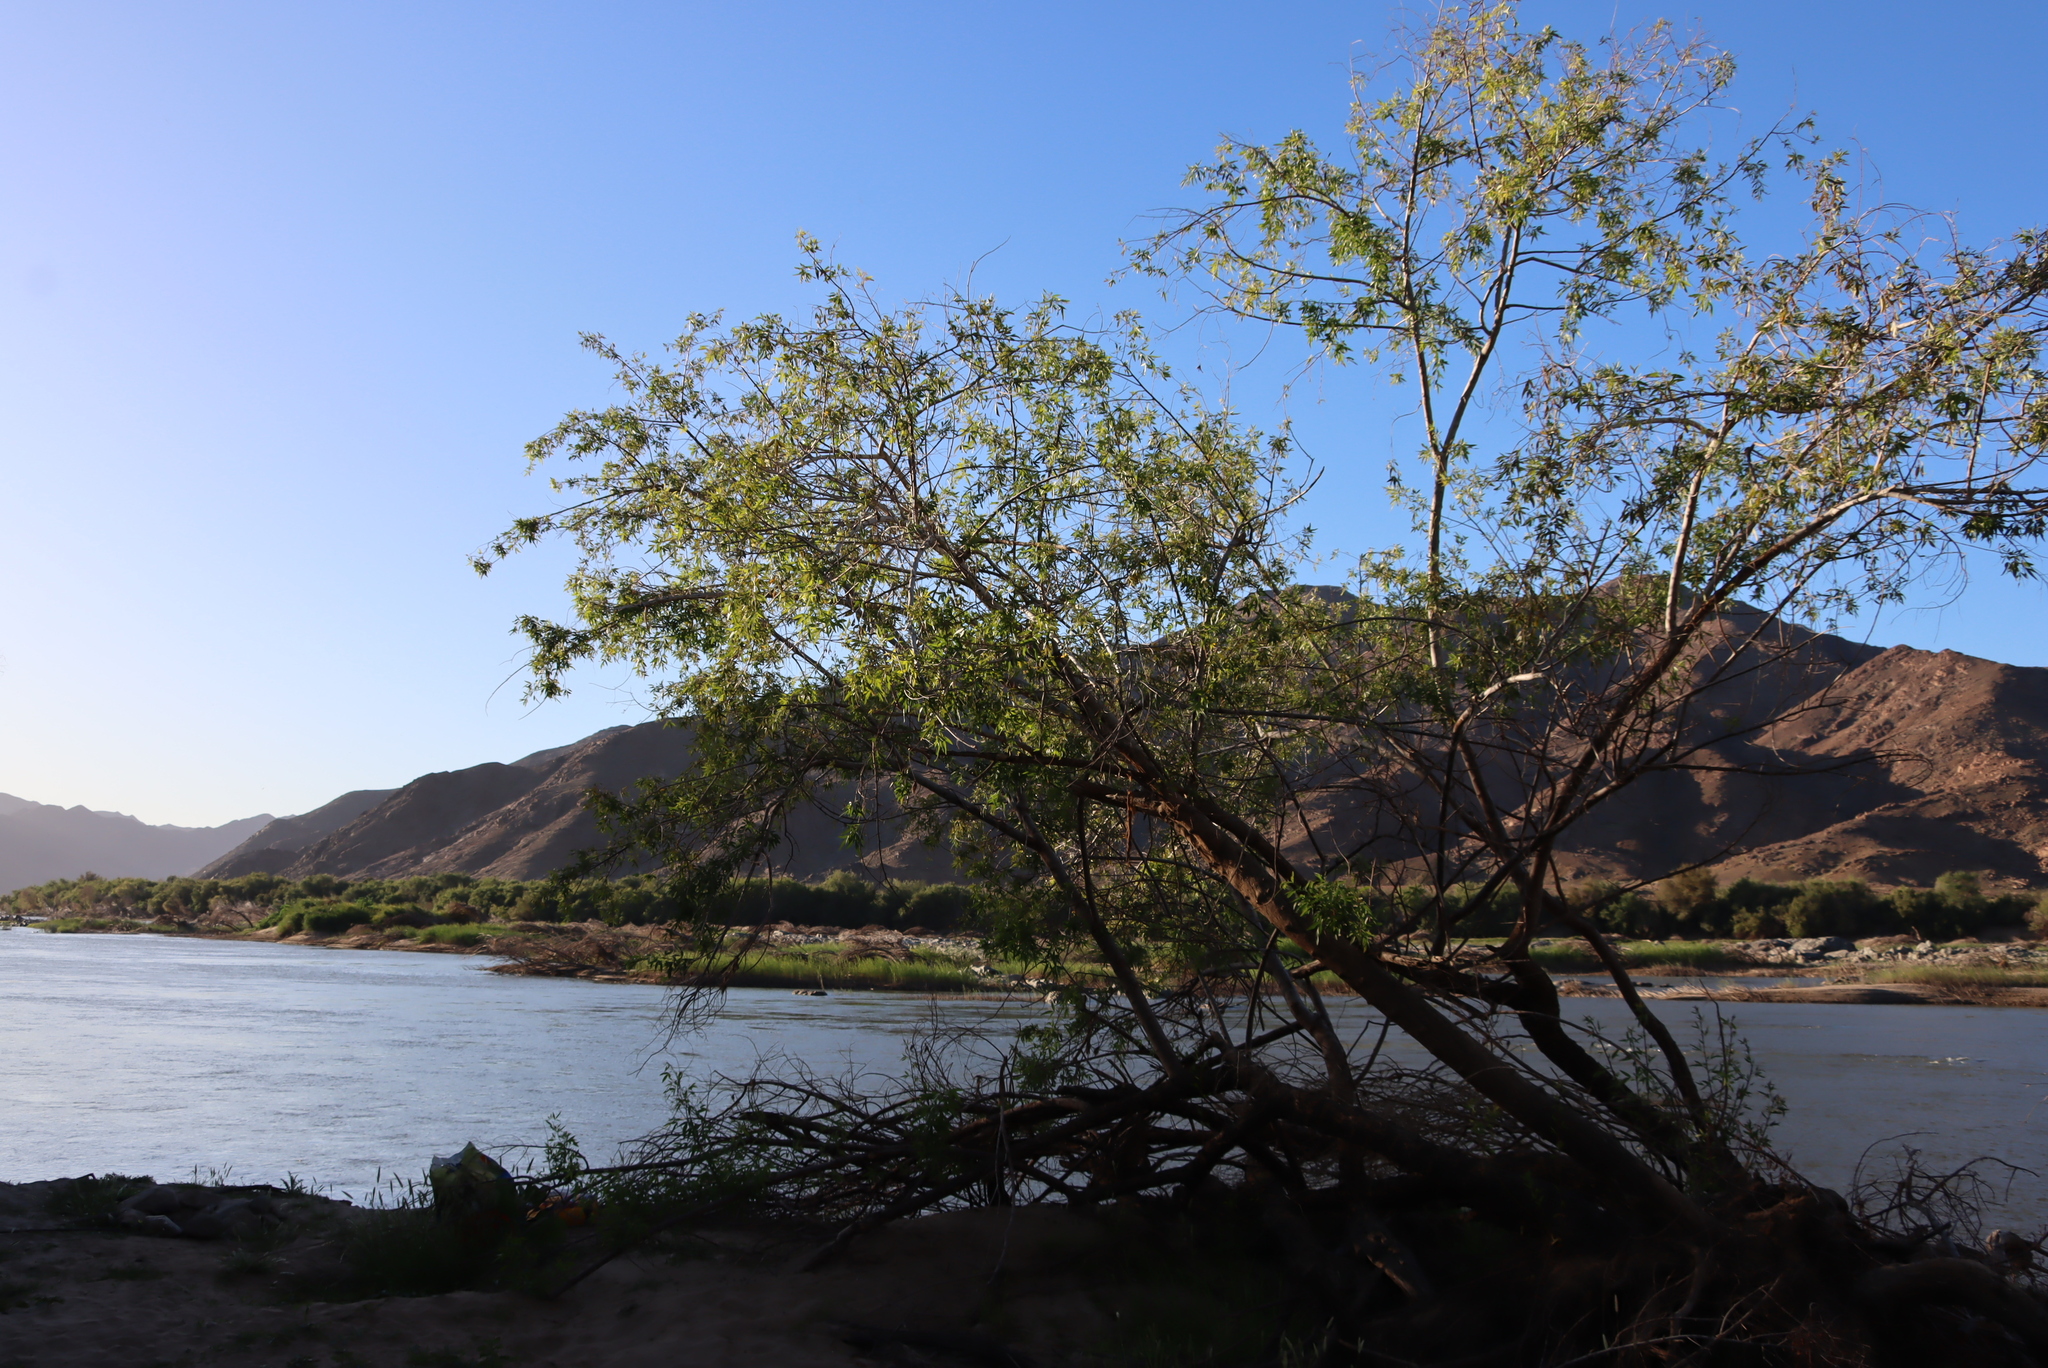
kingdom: Plantae
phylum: Tracheophyta
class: Magnoliopsida
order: Sapindales
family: Anacardiaceae
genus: Searsia
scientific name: Searsia pendulina
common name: White karee
